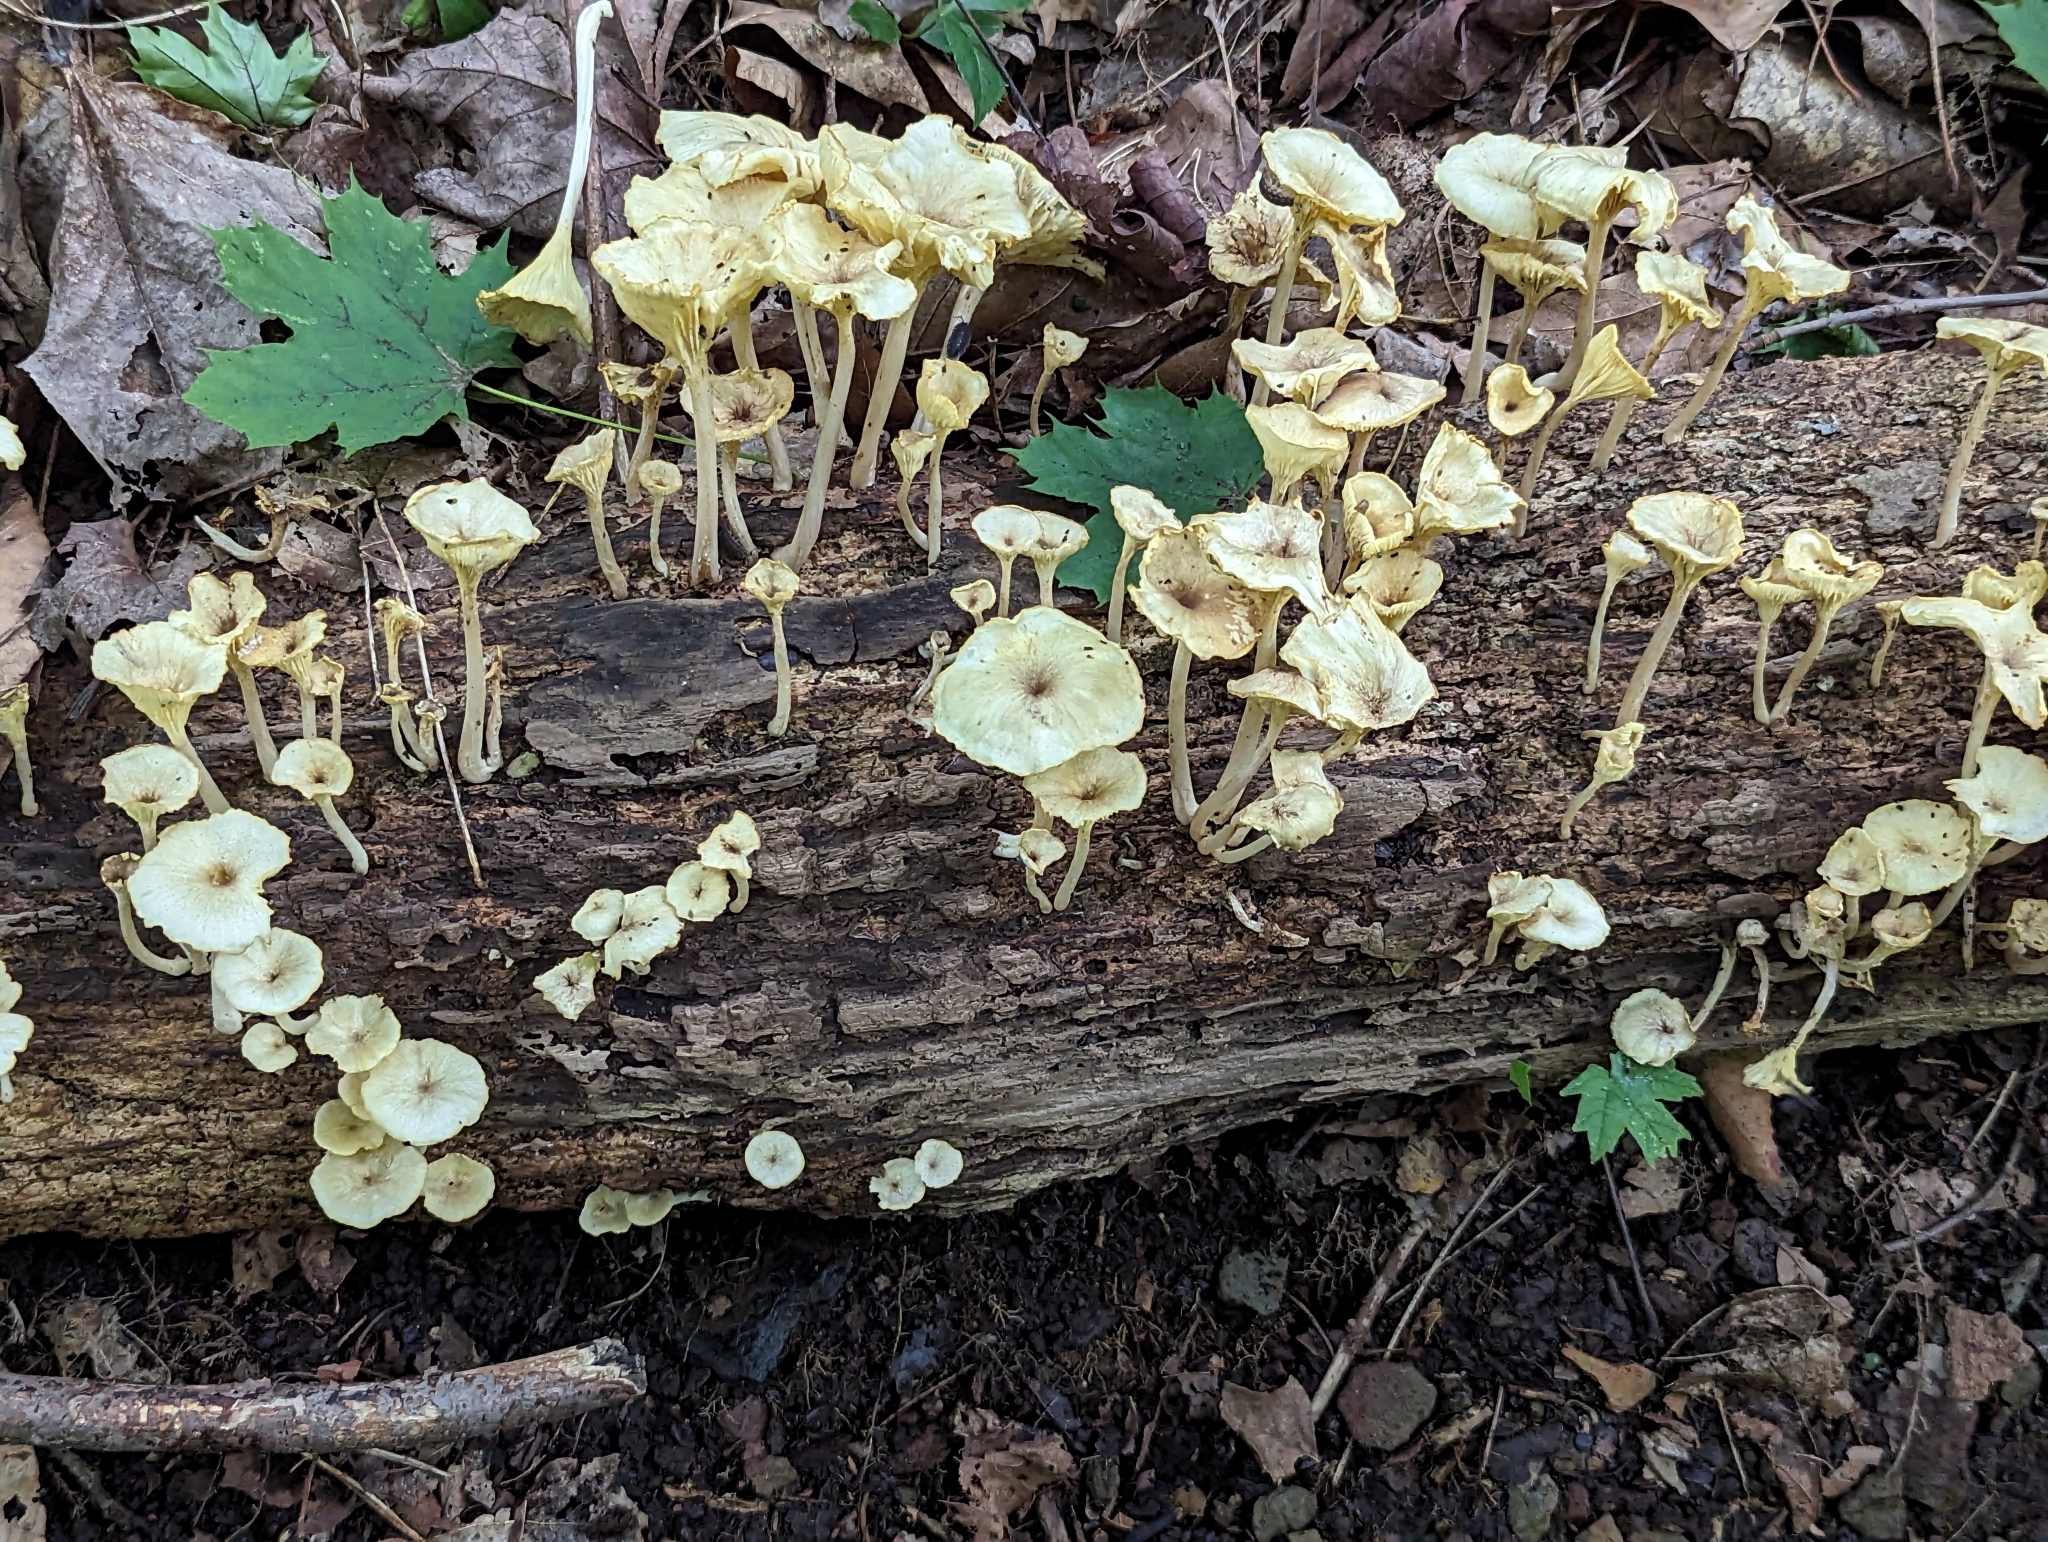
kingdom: Fungi
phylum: Basidiomycota
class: Agaricomycetes
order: Agaricales
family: Marasmiaceae
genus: Gerronema
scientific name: Gerronema strombodes
